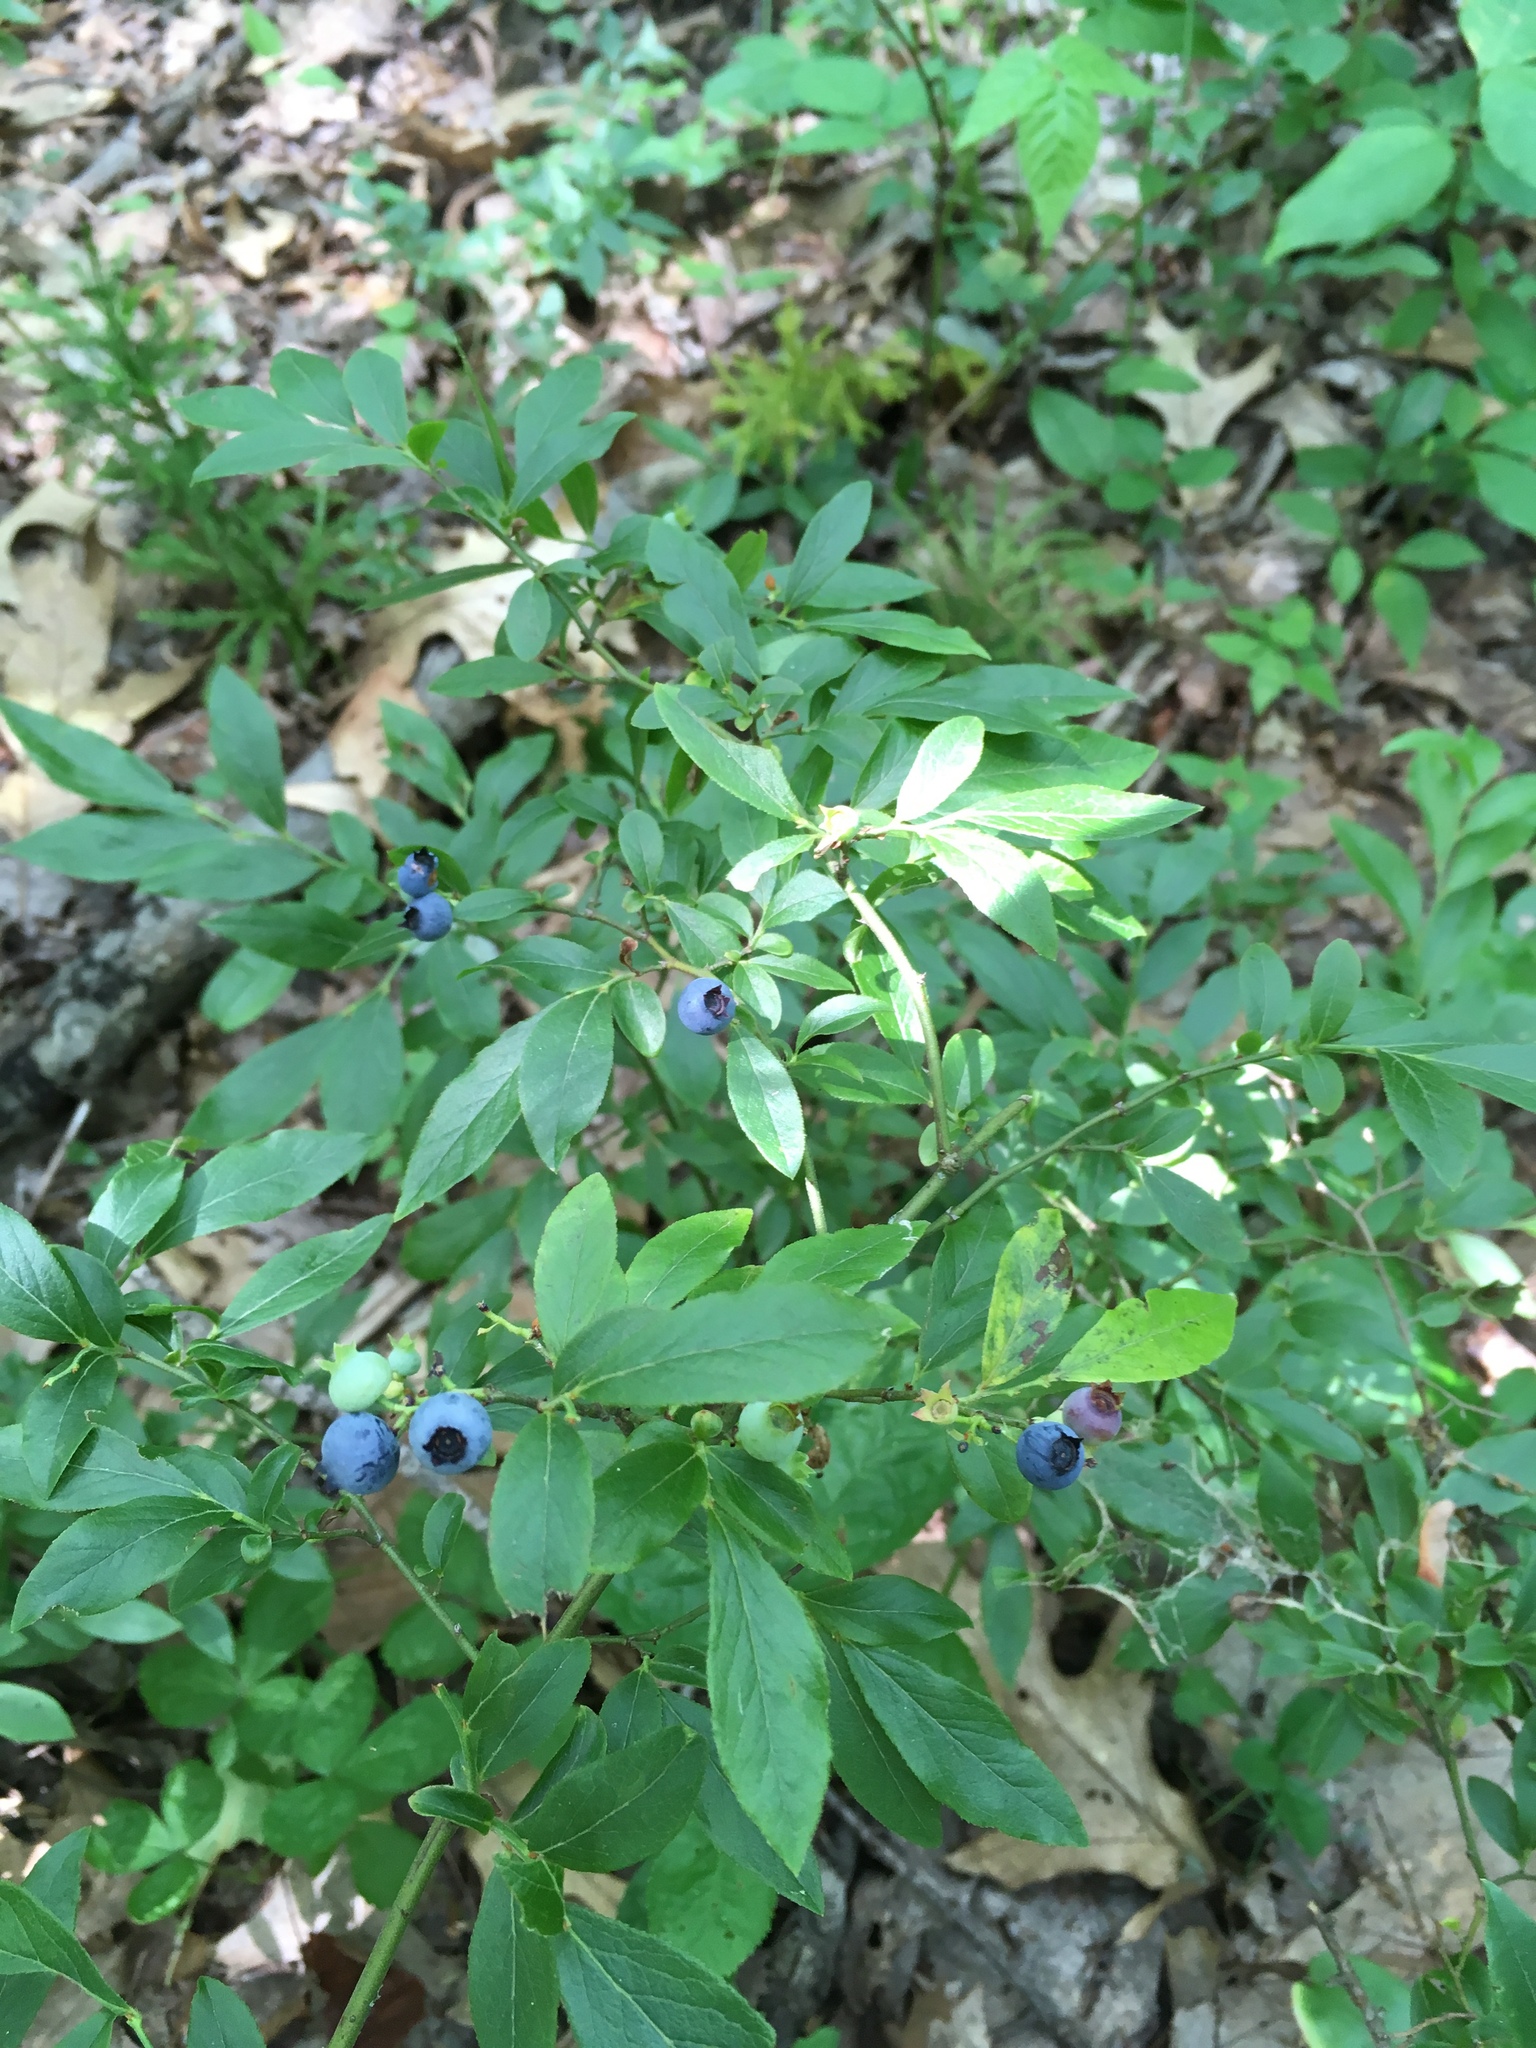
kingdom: Plantae
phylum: Tracheophyta
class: Magnoliopsida
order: Ericales
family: Ericaceae
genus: Vaccinium
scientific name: Vaccinium angustifolium
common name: Early lowbush blueberry
